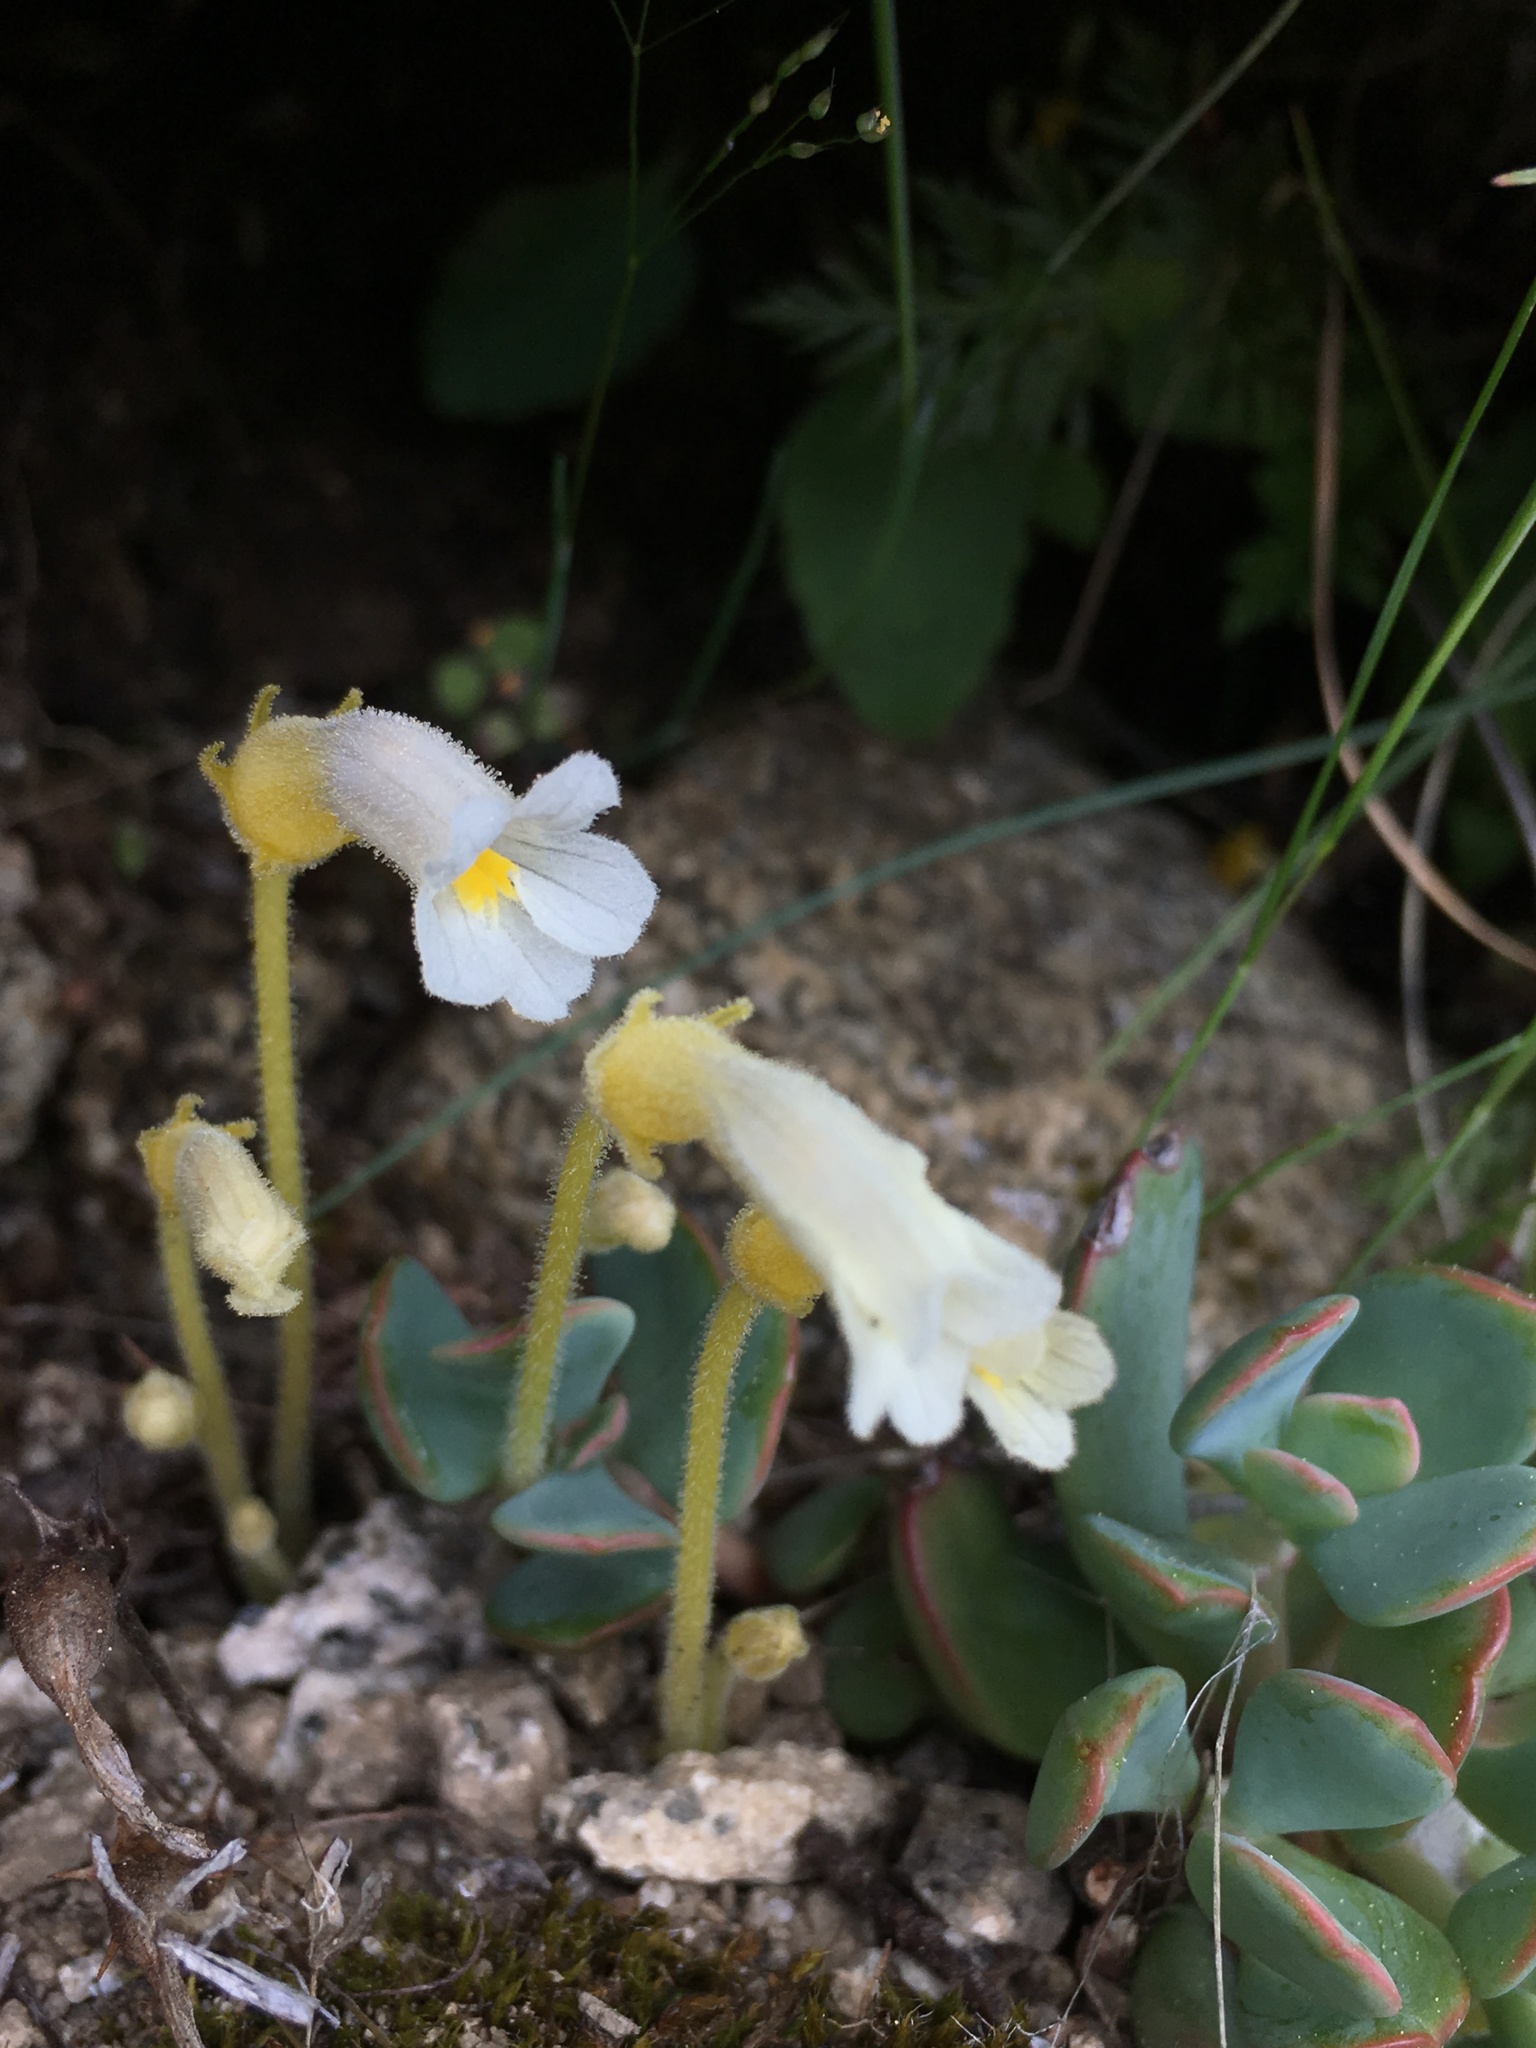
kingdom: Plantae
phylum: Tracheophyta
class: Magnoliopsida
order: Lamiales
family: Orobanchaceae
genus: Aphyllon
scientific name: Aphyllon uniflorum
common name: One-flowered broomrape
